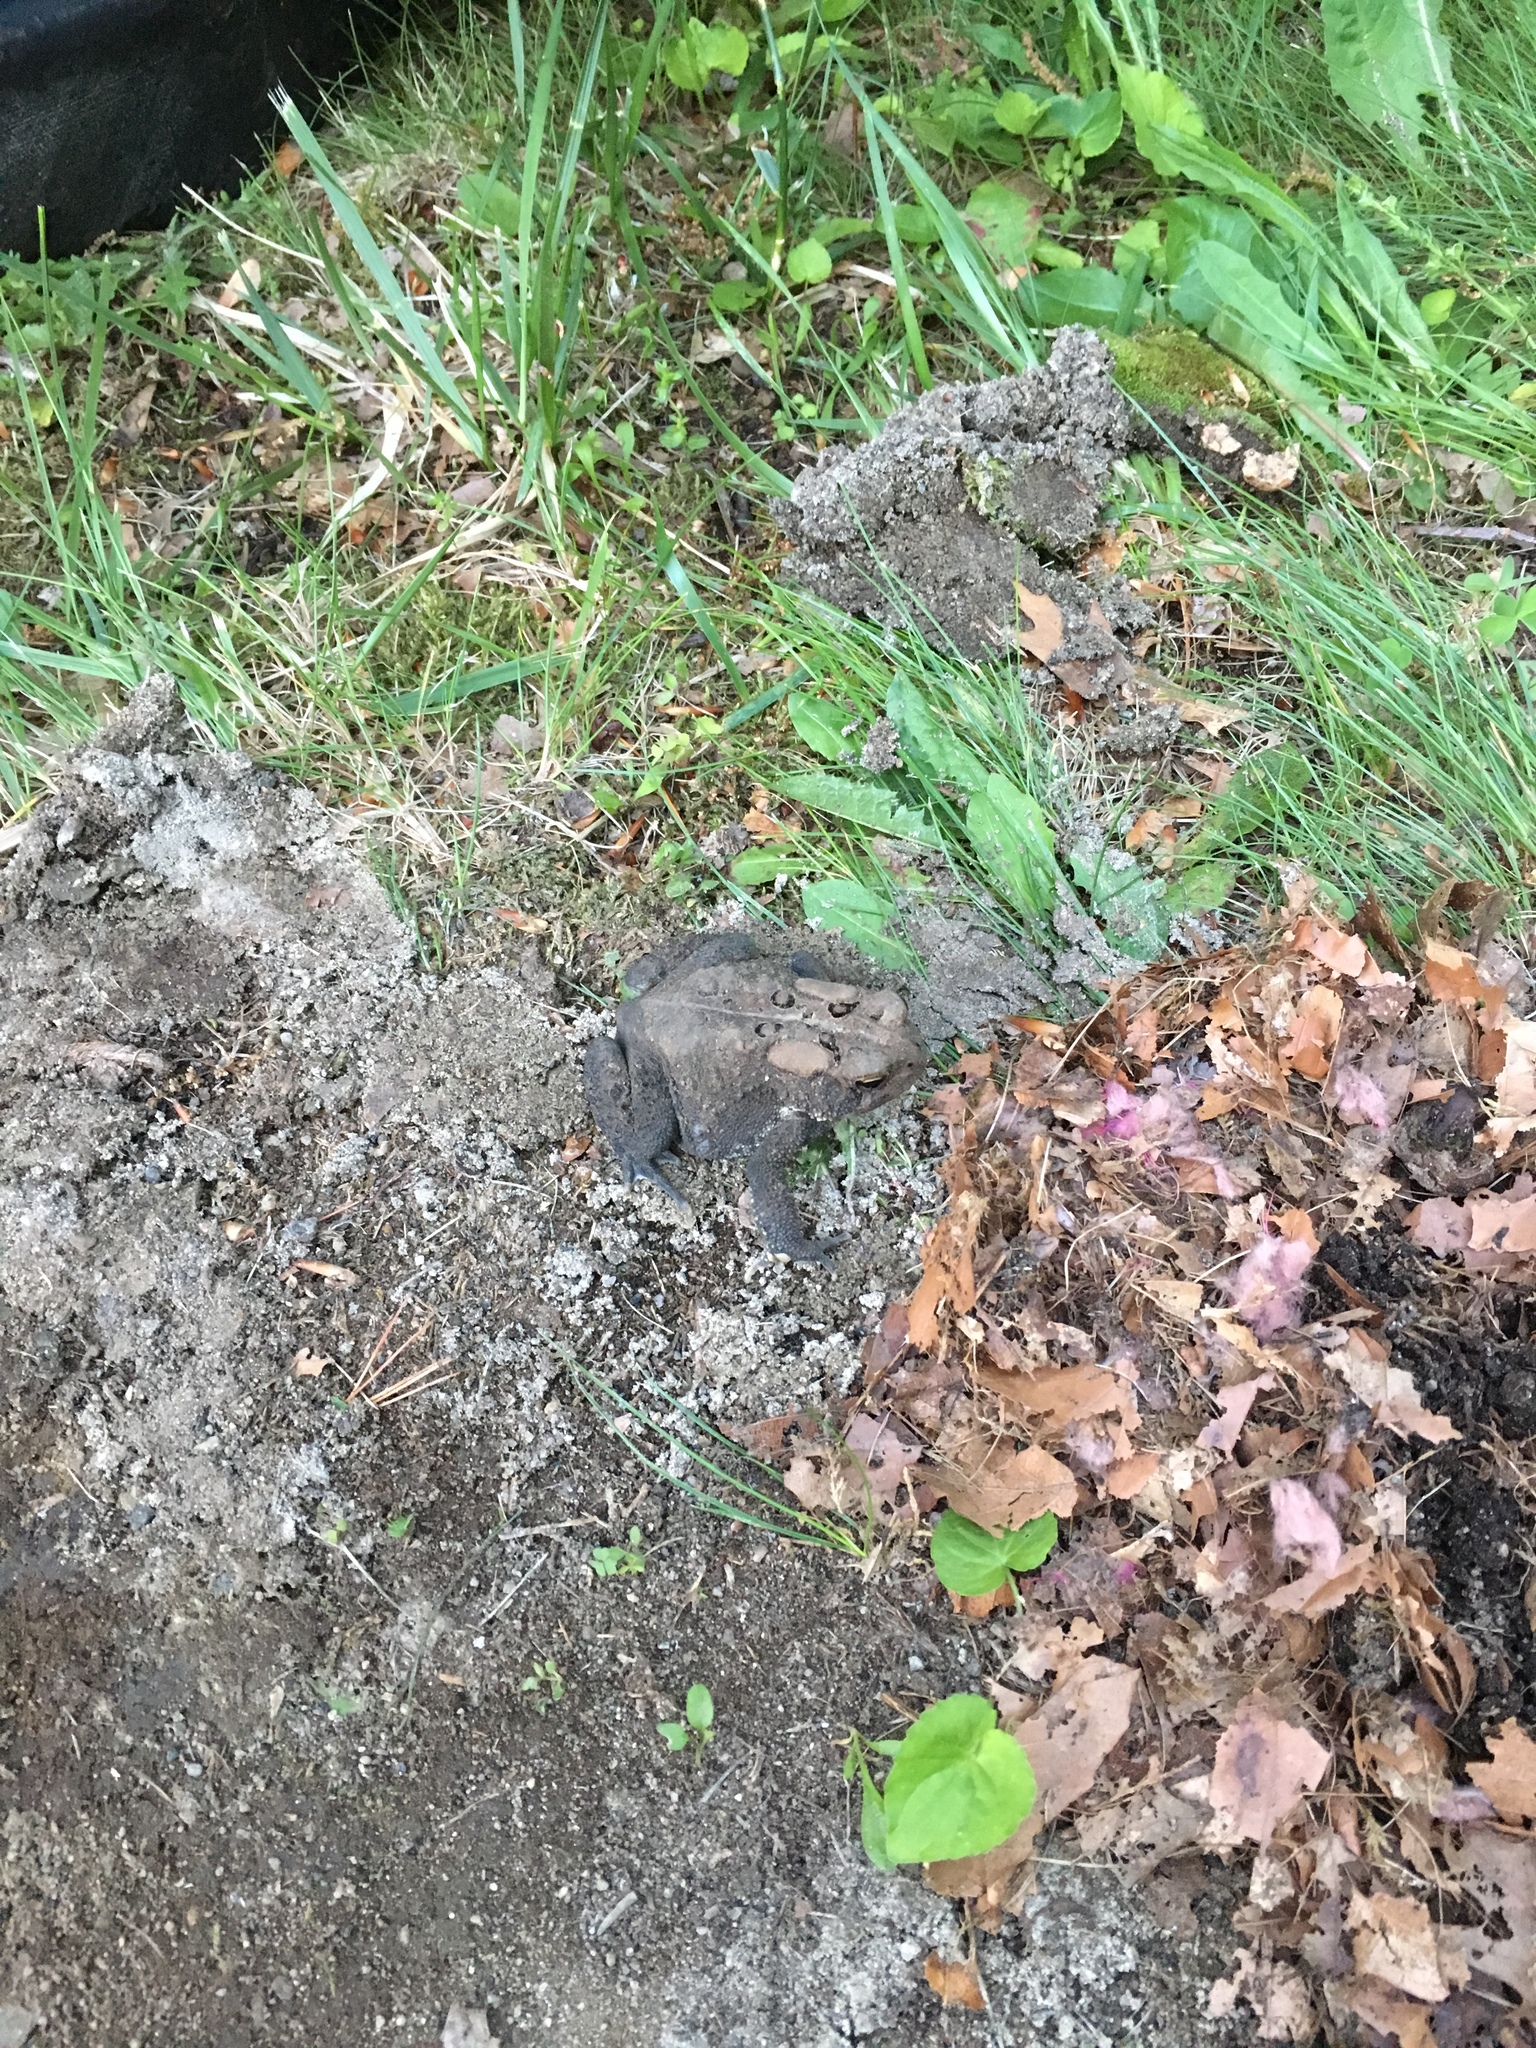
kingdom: Animalia
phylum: Chordata
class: Amphibia
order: Anura
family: Bufonidae
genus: Anaxyrus
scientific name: Anaxyrus americanus
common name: American toad
